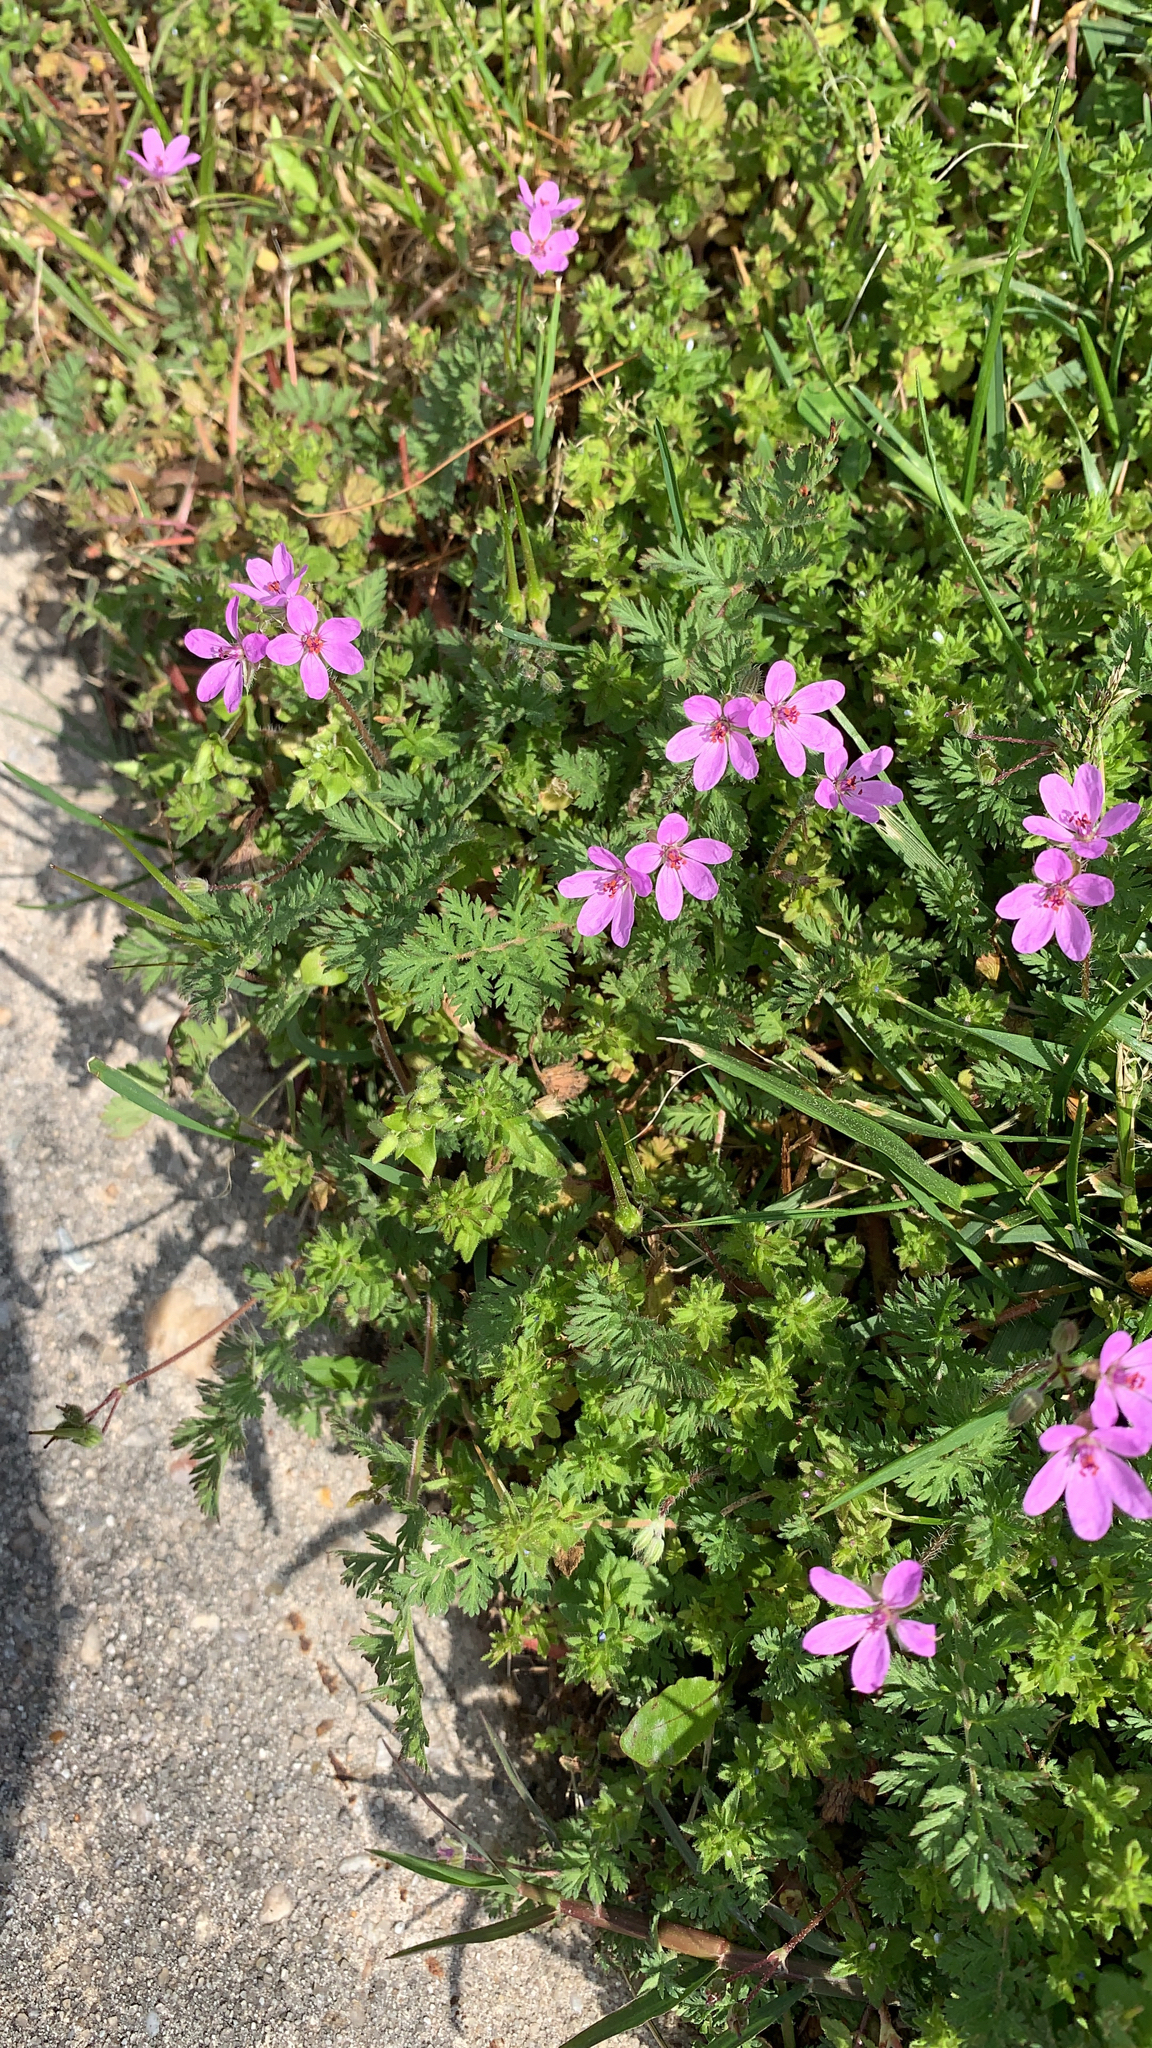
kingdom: Plantae
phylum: Tracheophyta
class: Magnoliopsida
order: Geraniales
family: Geraniaceae
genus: Erodium
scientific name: Erodium cicutarium
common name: Common stork's-bill
